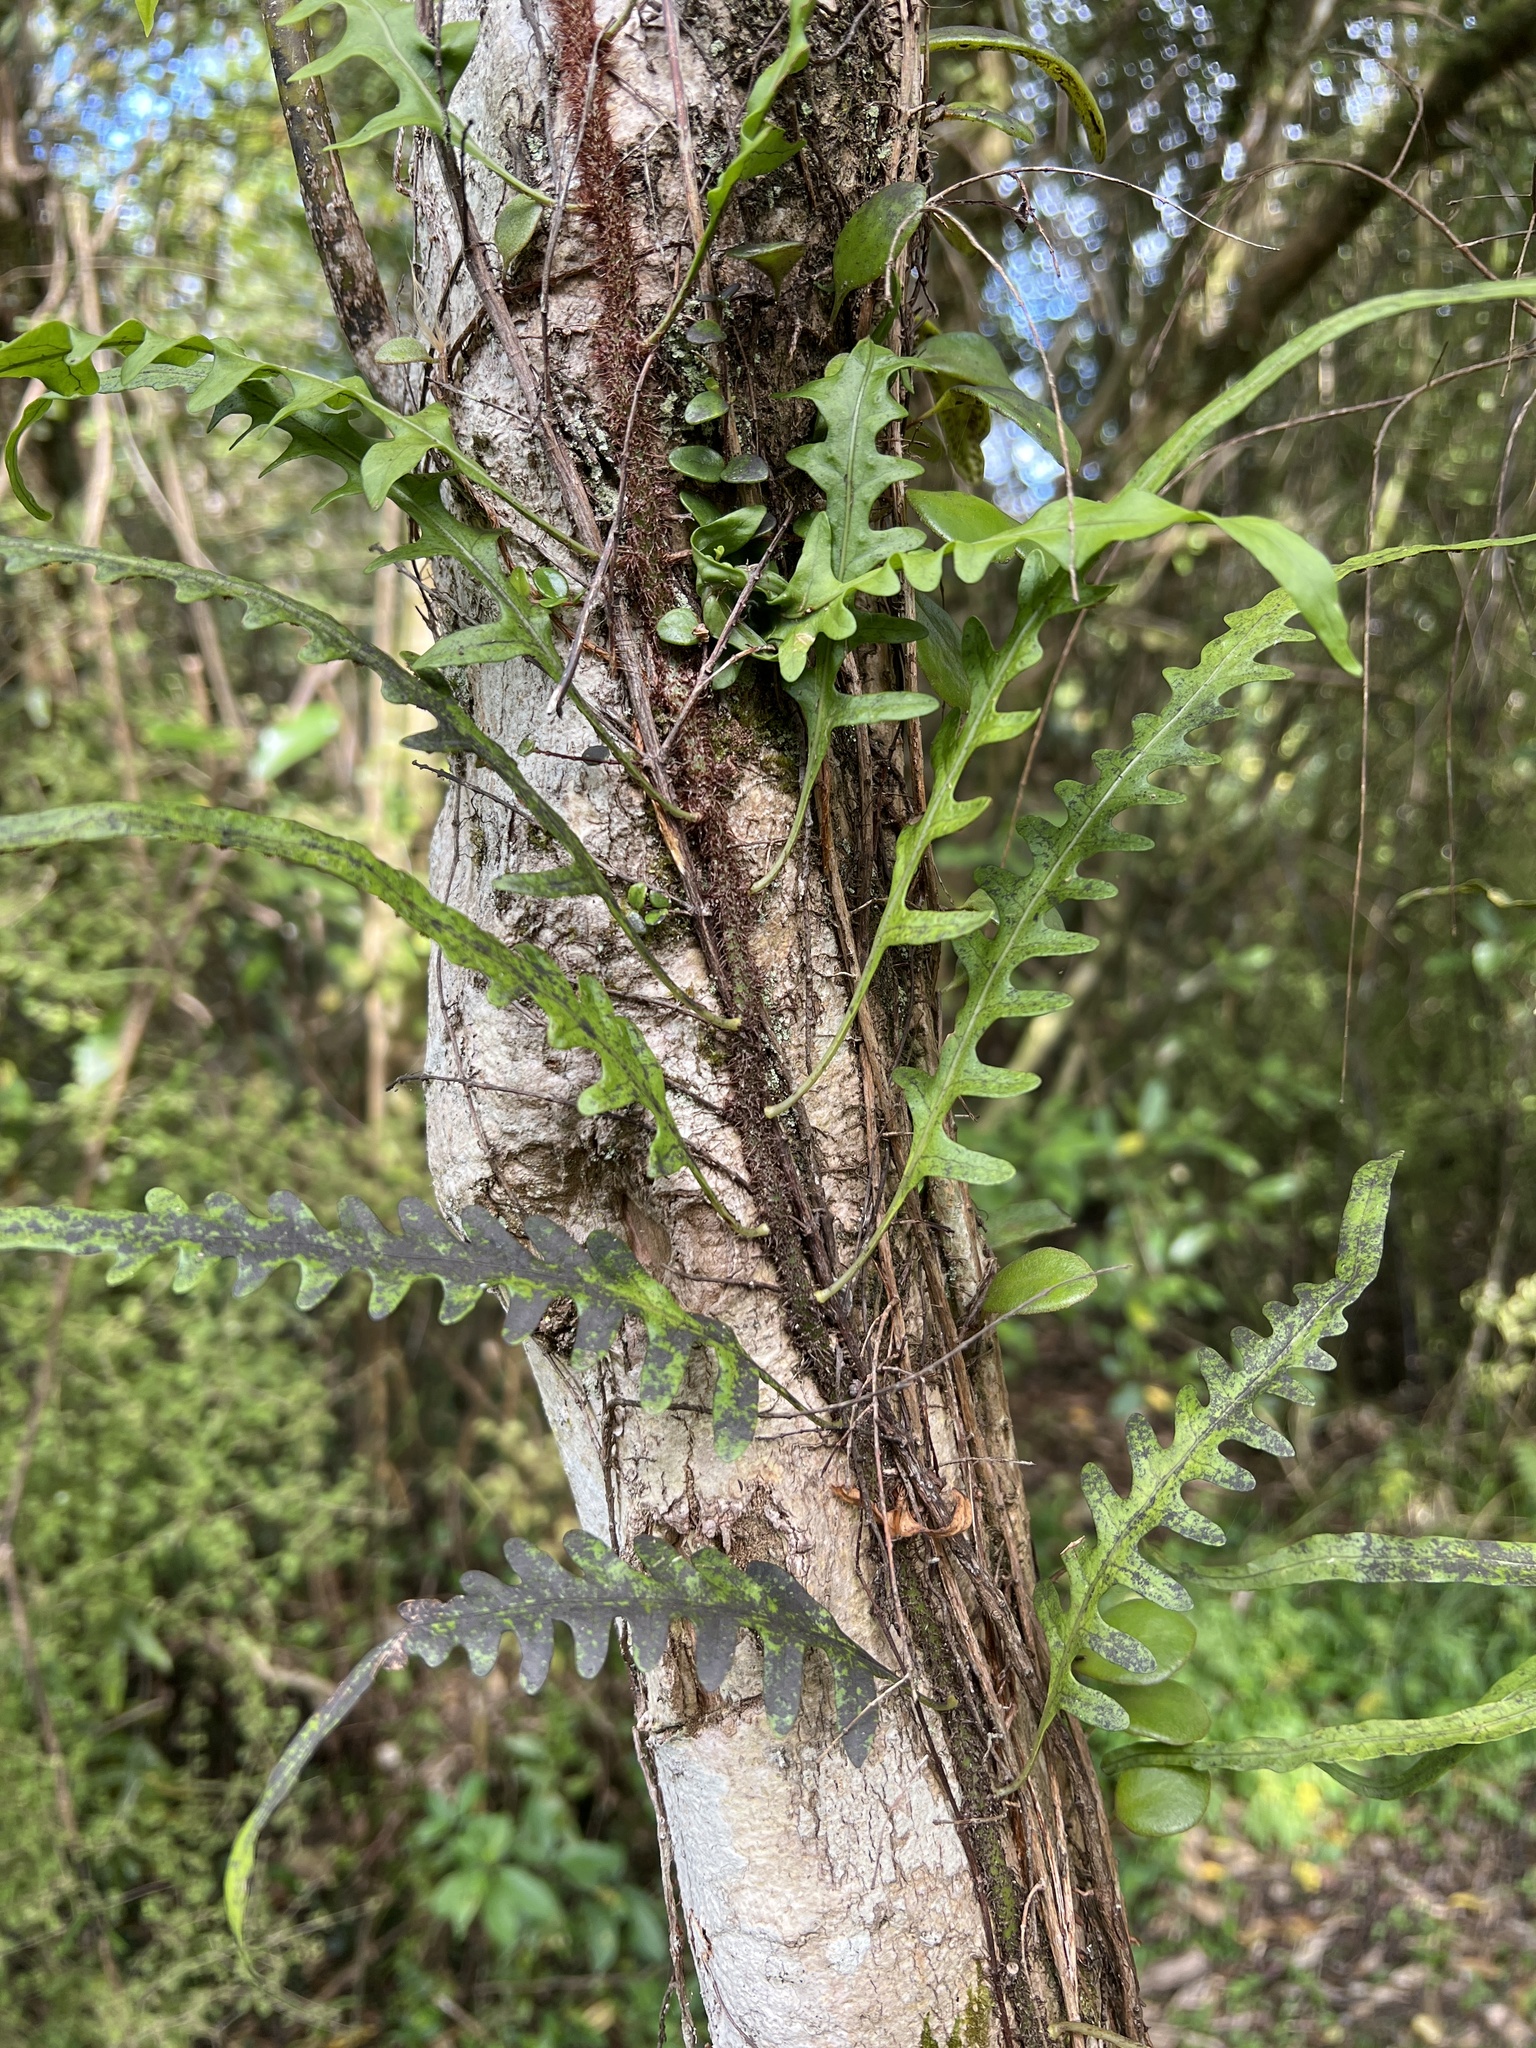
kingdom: Plantae
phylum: Tracheophyta
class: Polypodiopsida
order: Polypodiales
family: Polypodiaceae
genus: Lecanopteris
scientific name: Lecanopteris scandens
